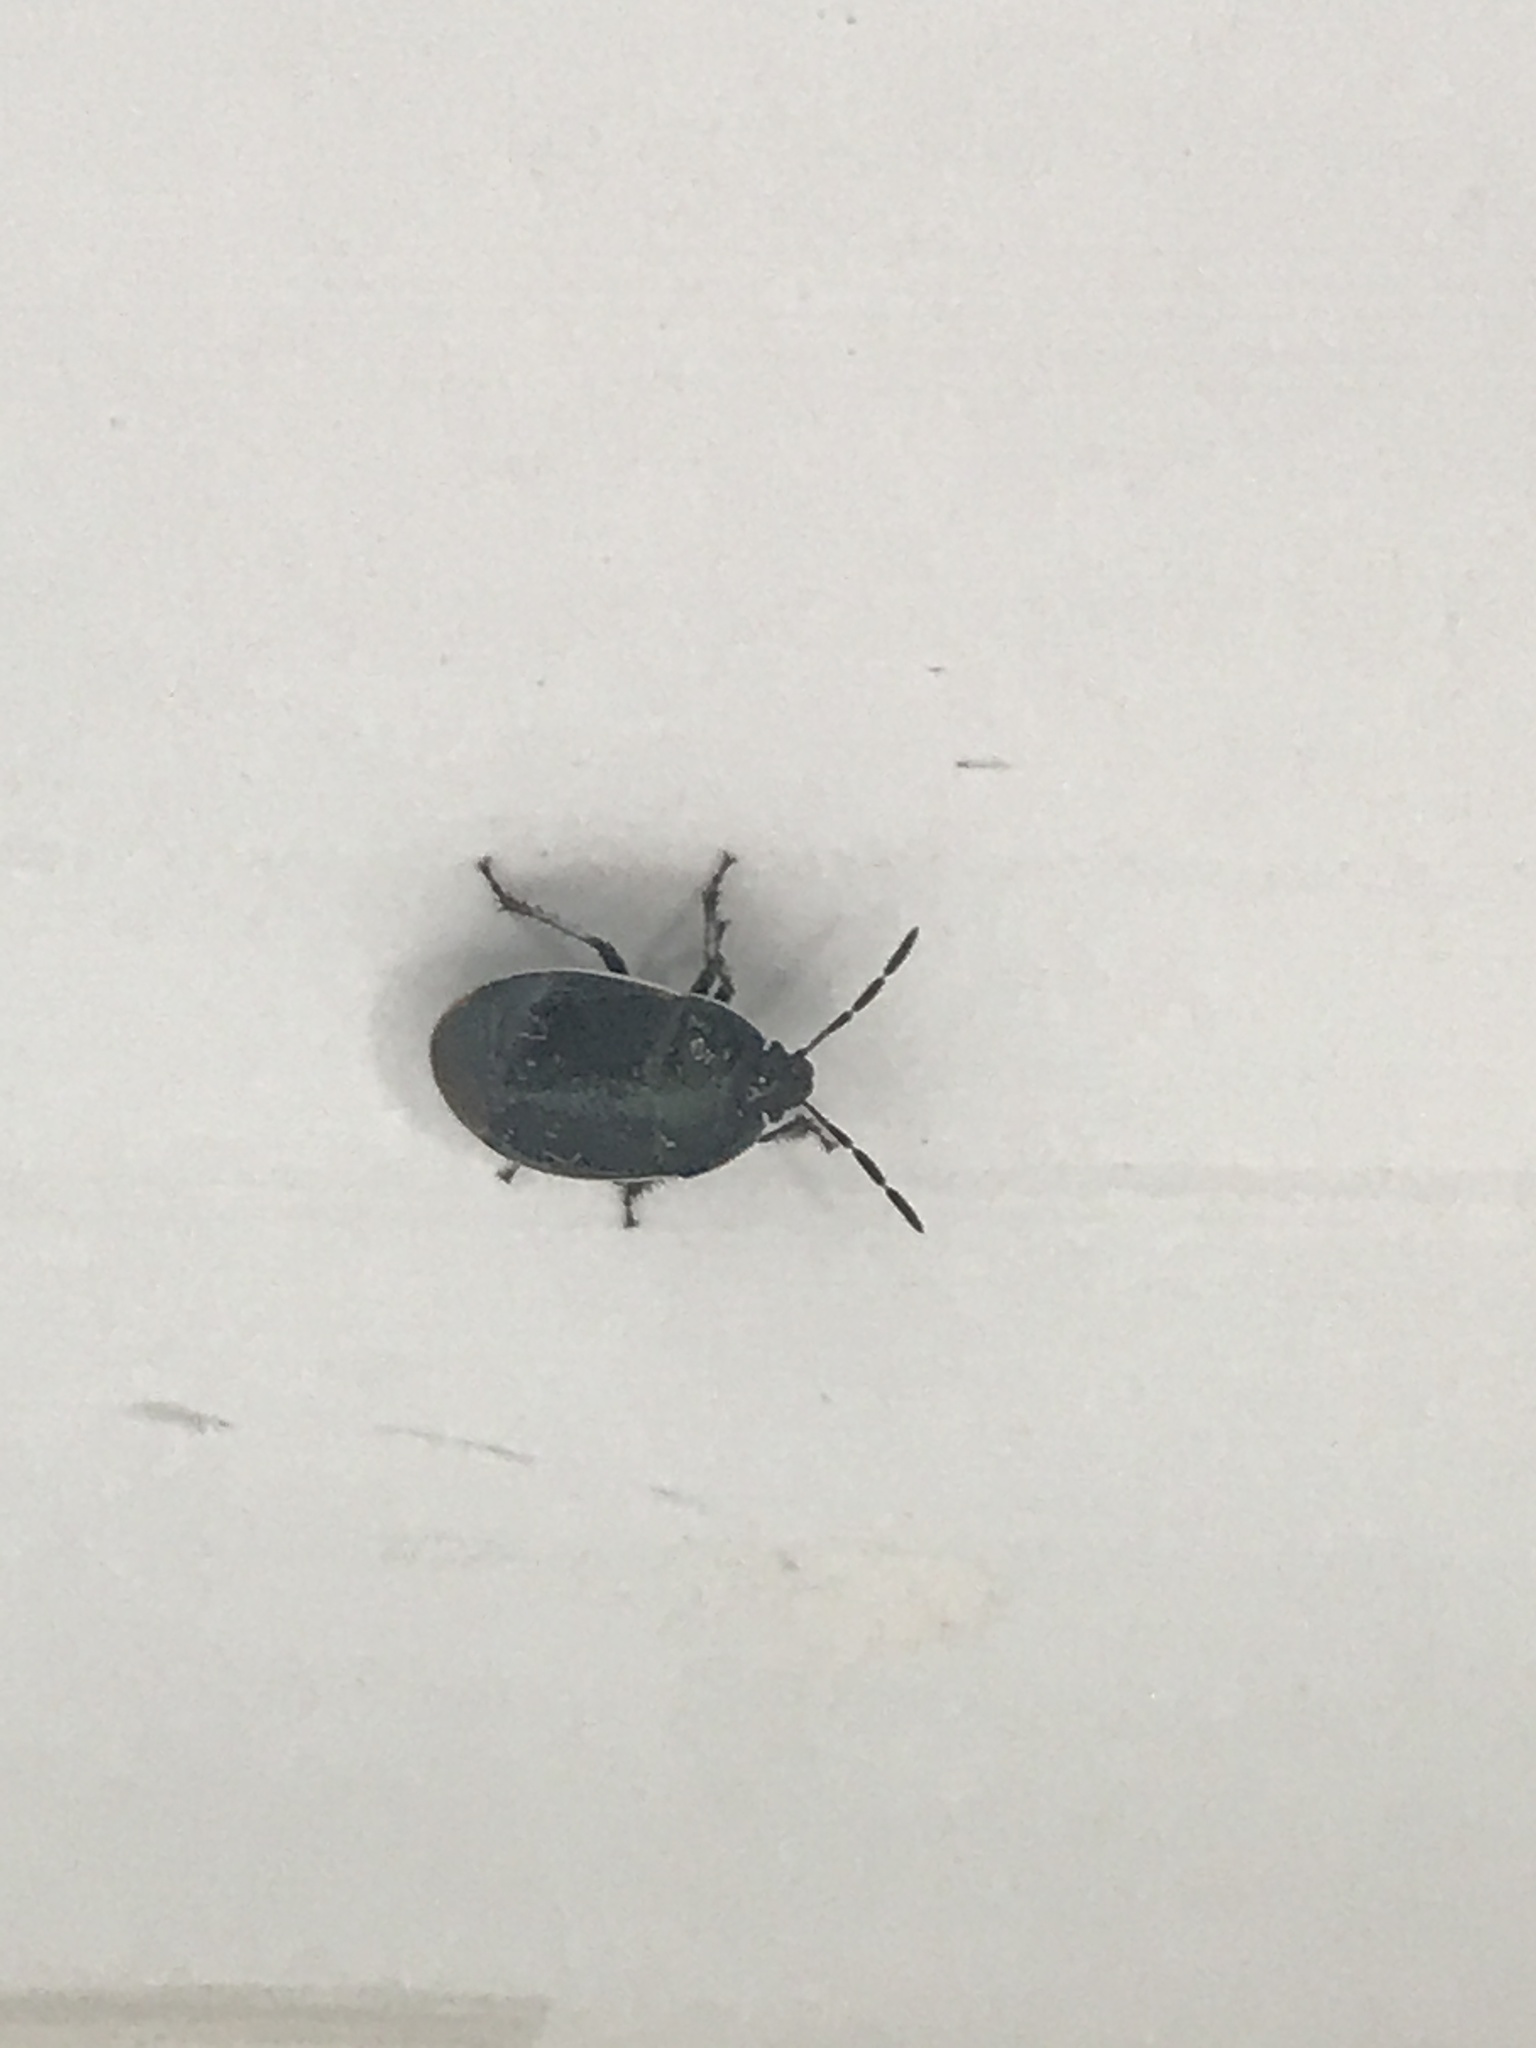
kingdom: Animalia
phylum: Arthropoda
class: Insecta
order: Hemiptera
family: Cydnidae
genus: Sehirus
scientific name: Sehirus cinctus
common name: White-margined burrower bug
